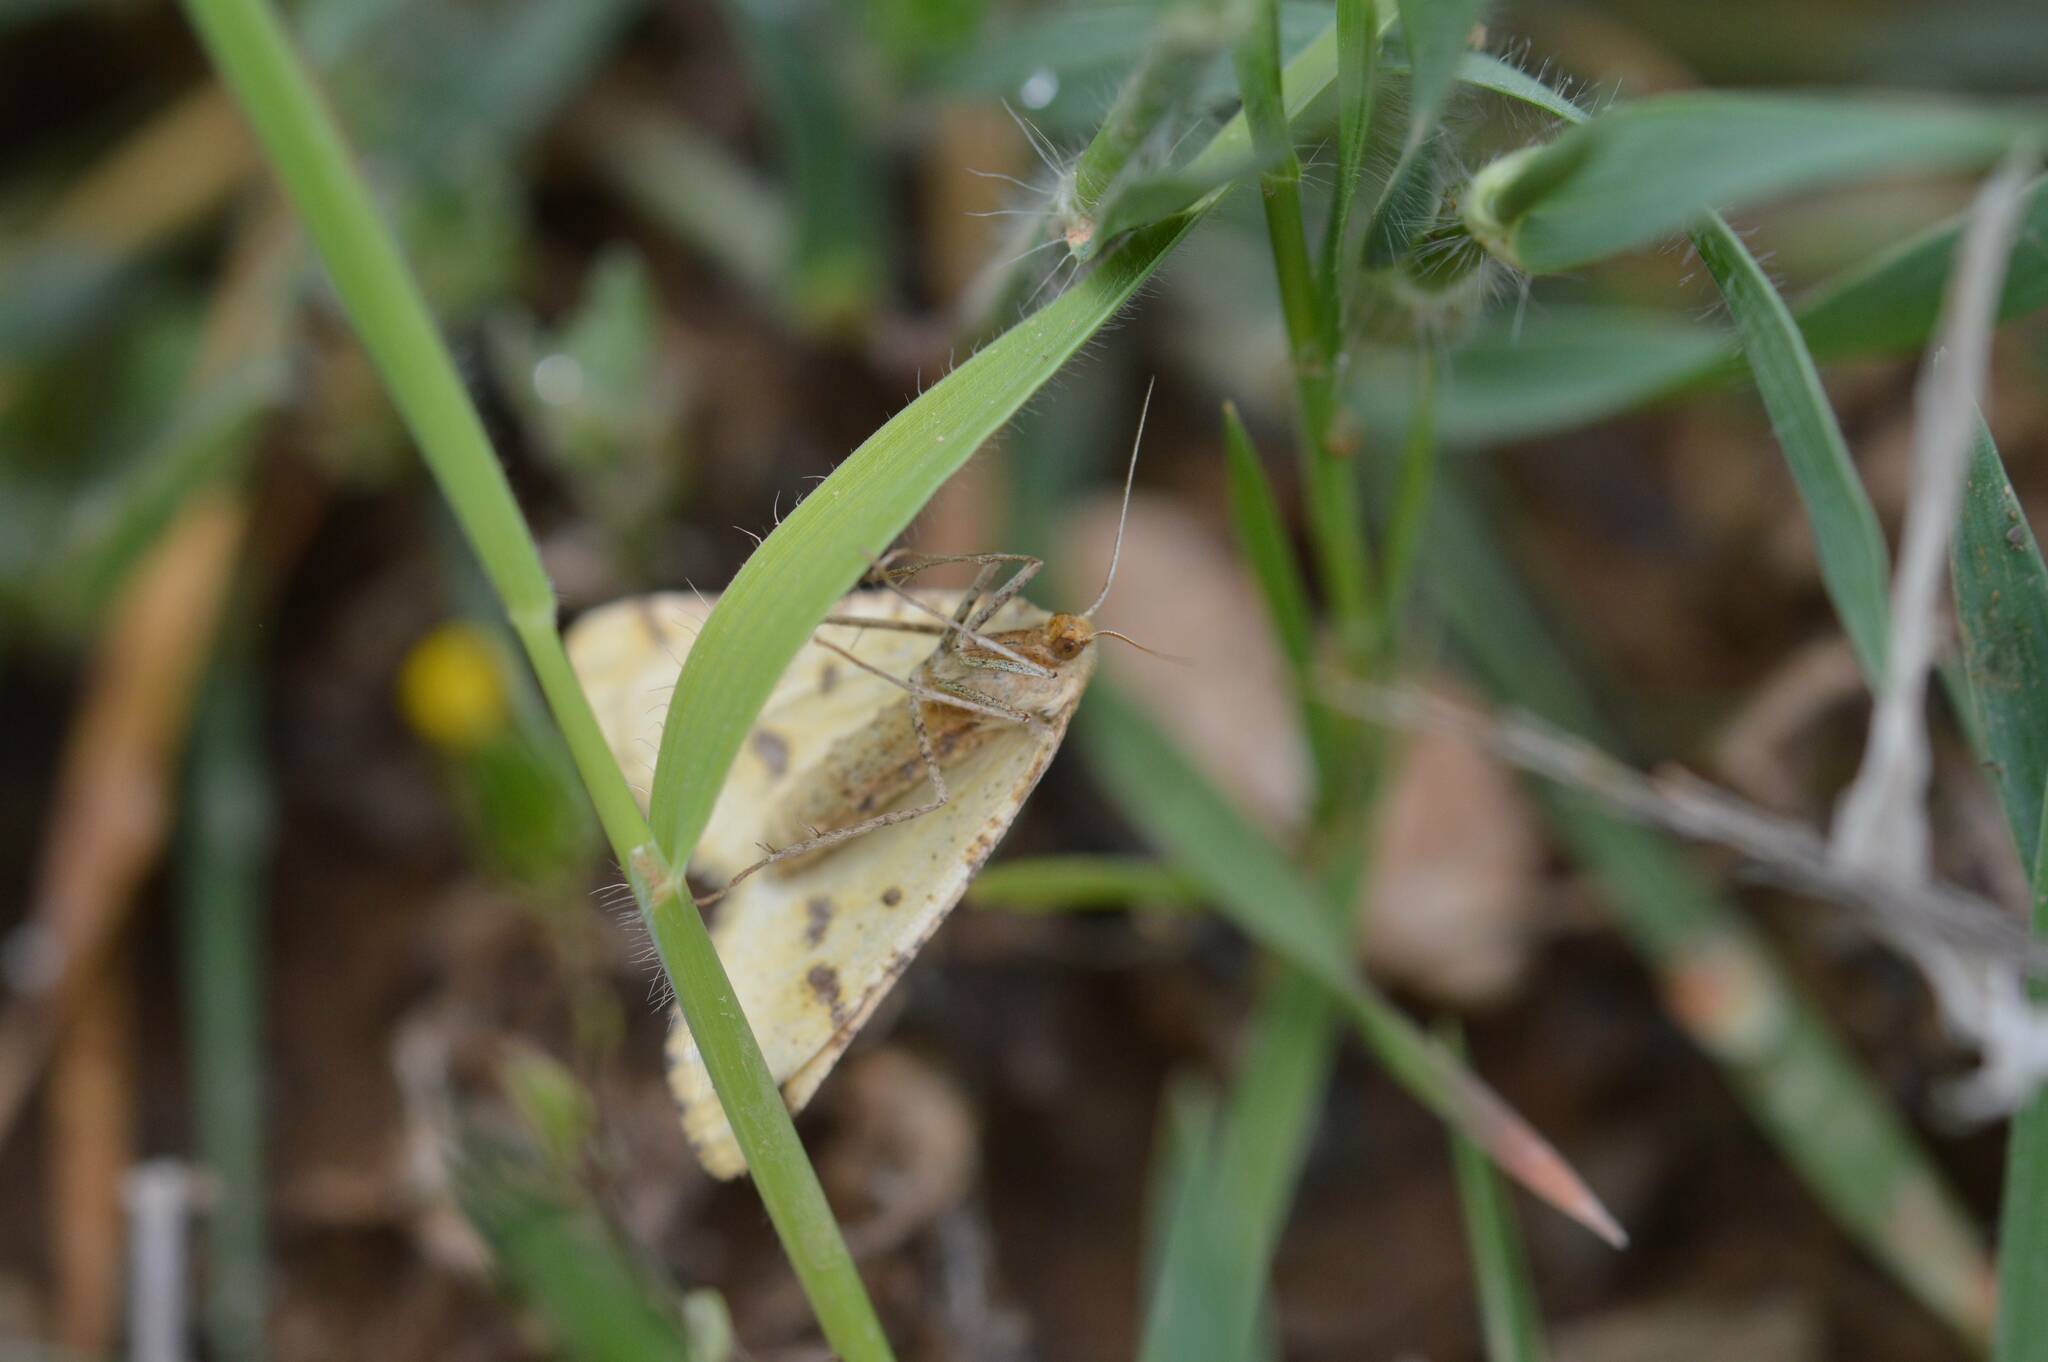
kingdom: Animalia
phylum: Arthropoda
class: Insecta
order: Lepidoptera
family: Geometridae
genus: Aspitates
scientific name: Aspitates ochrearia
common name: Yellow belle
